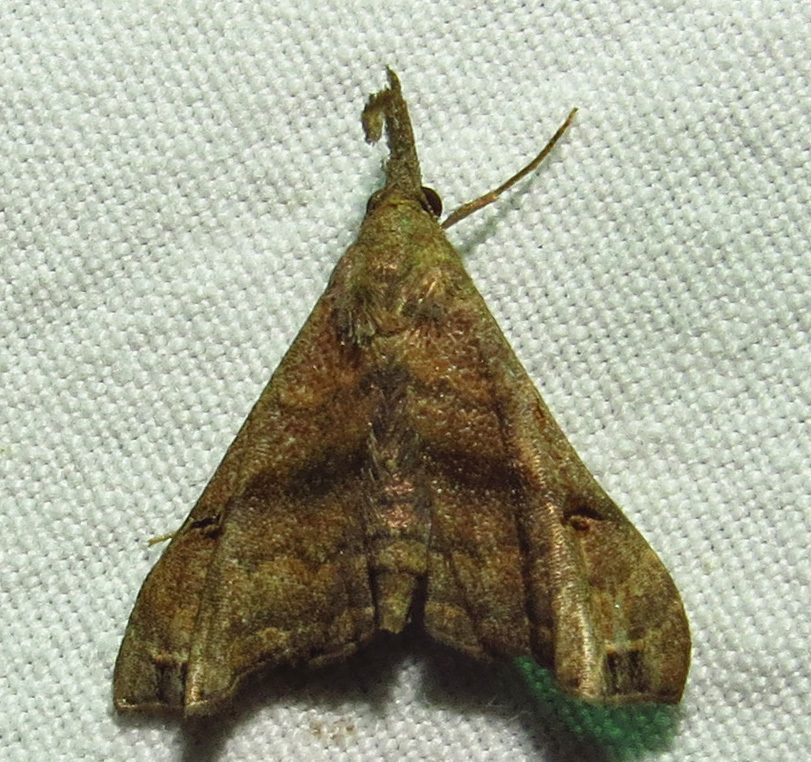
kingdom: Animalia
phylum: Arthropoda
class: Insecta
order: Lepidoptera
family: Erebidae
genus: Palthis
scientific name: Palthis asopialis
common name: Faint-spotted palthis moth
